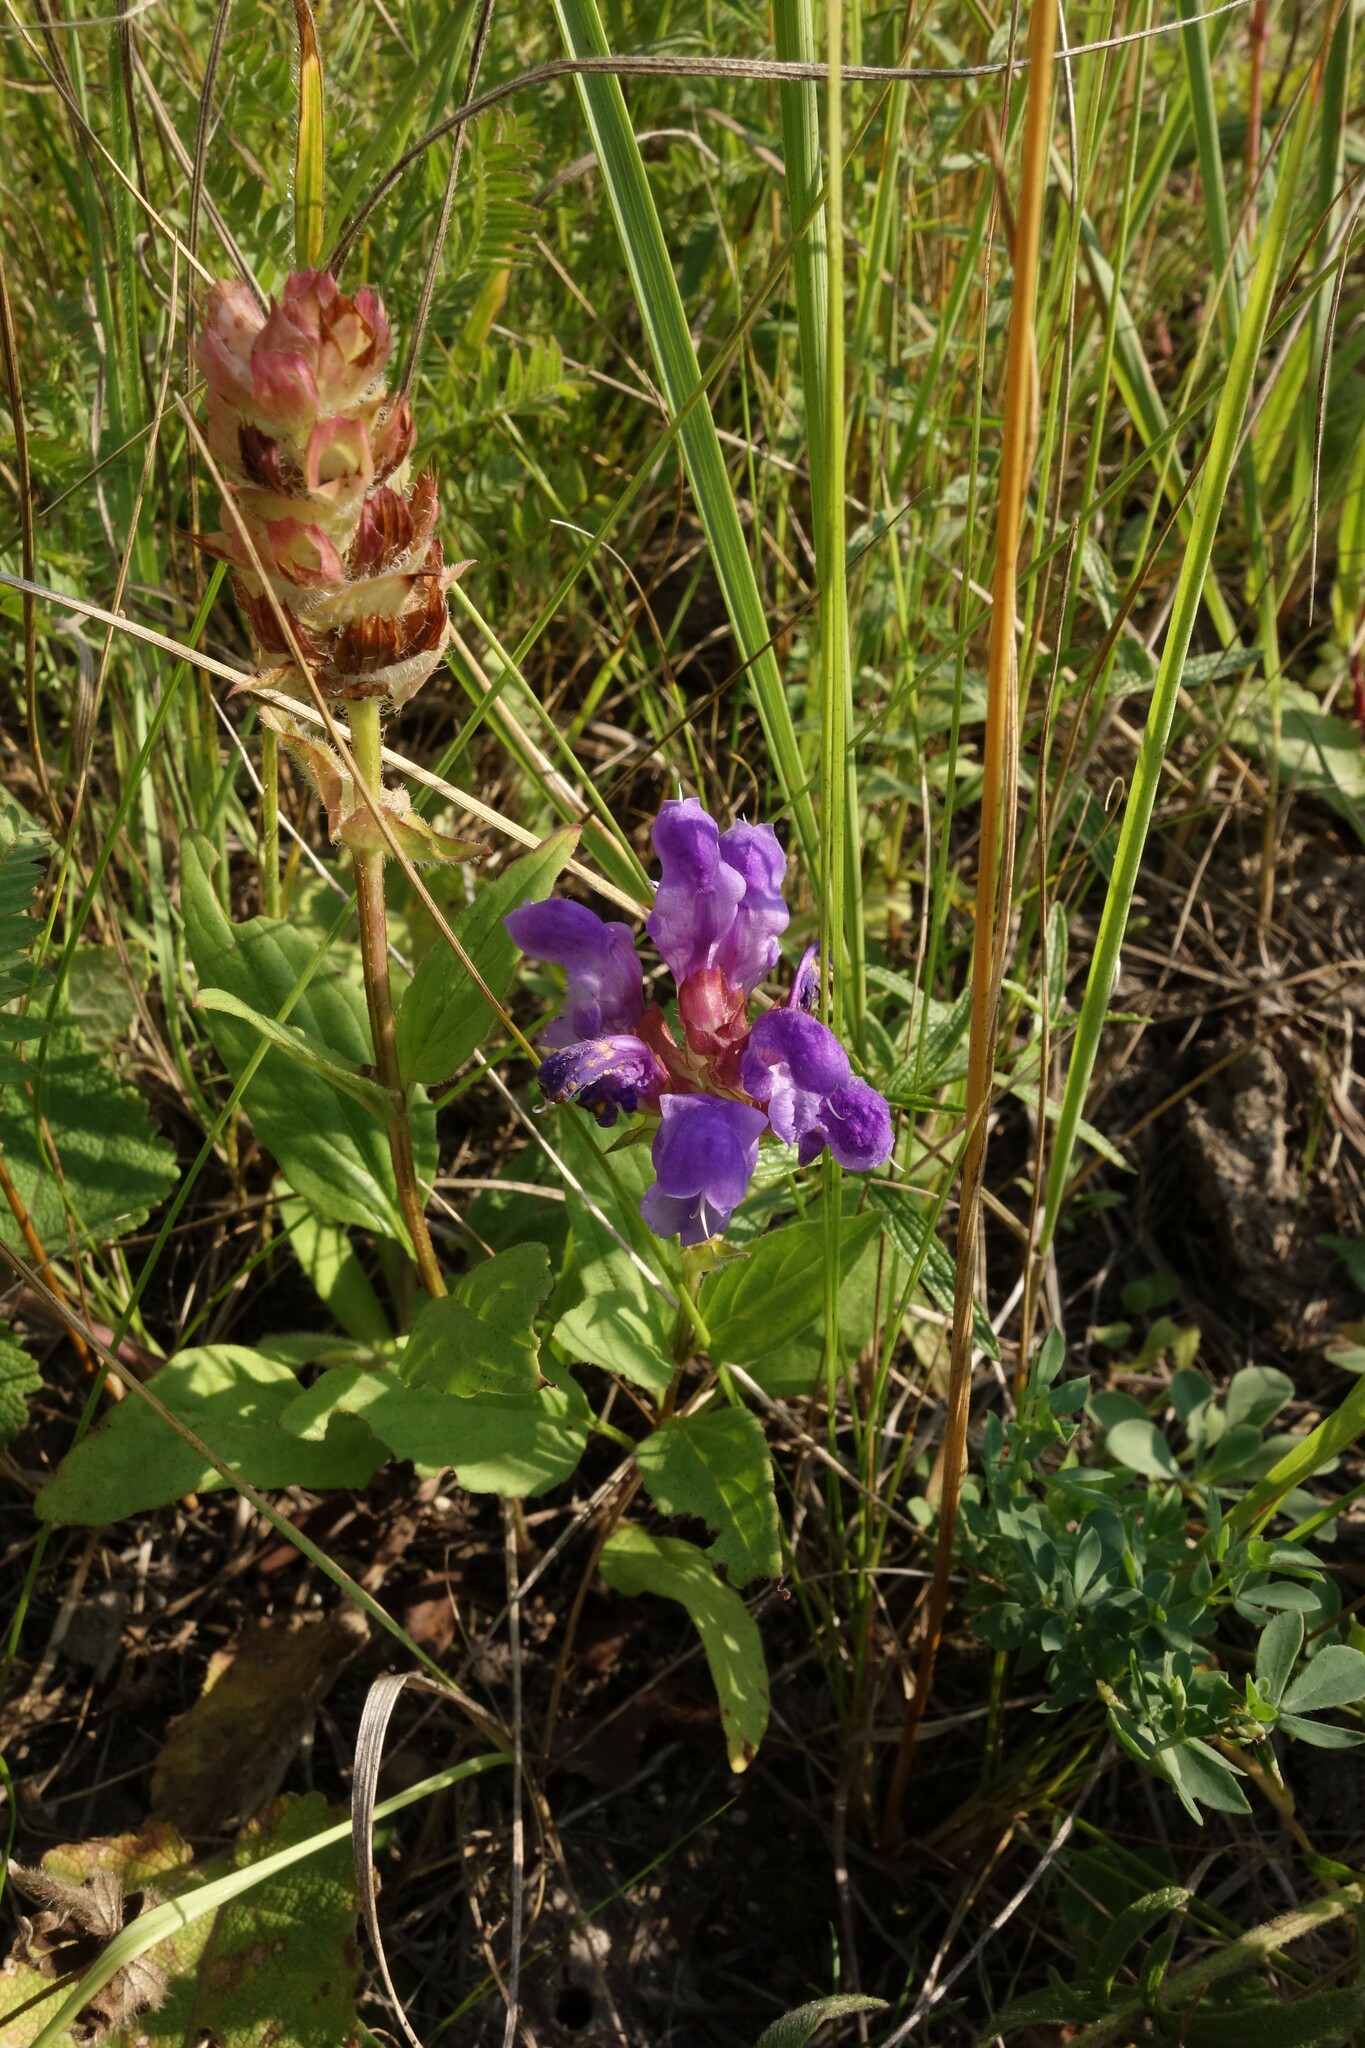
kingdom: Plantae
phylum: Tracheophyta
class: Magnoliopsida
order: Lamiales
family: Lamiaceae
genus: Prunella
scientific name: Prunella grandiflora
